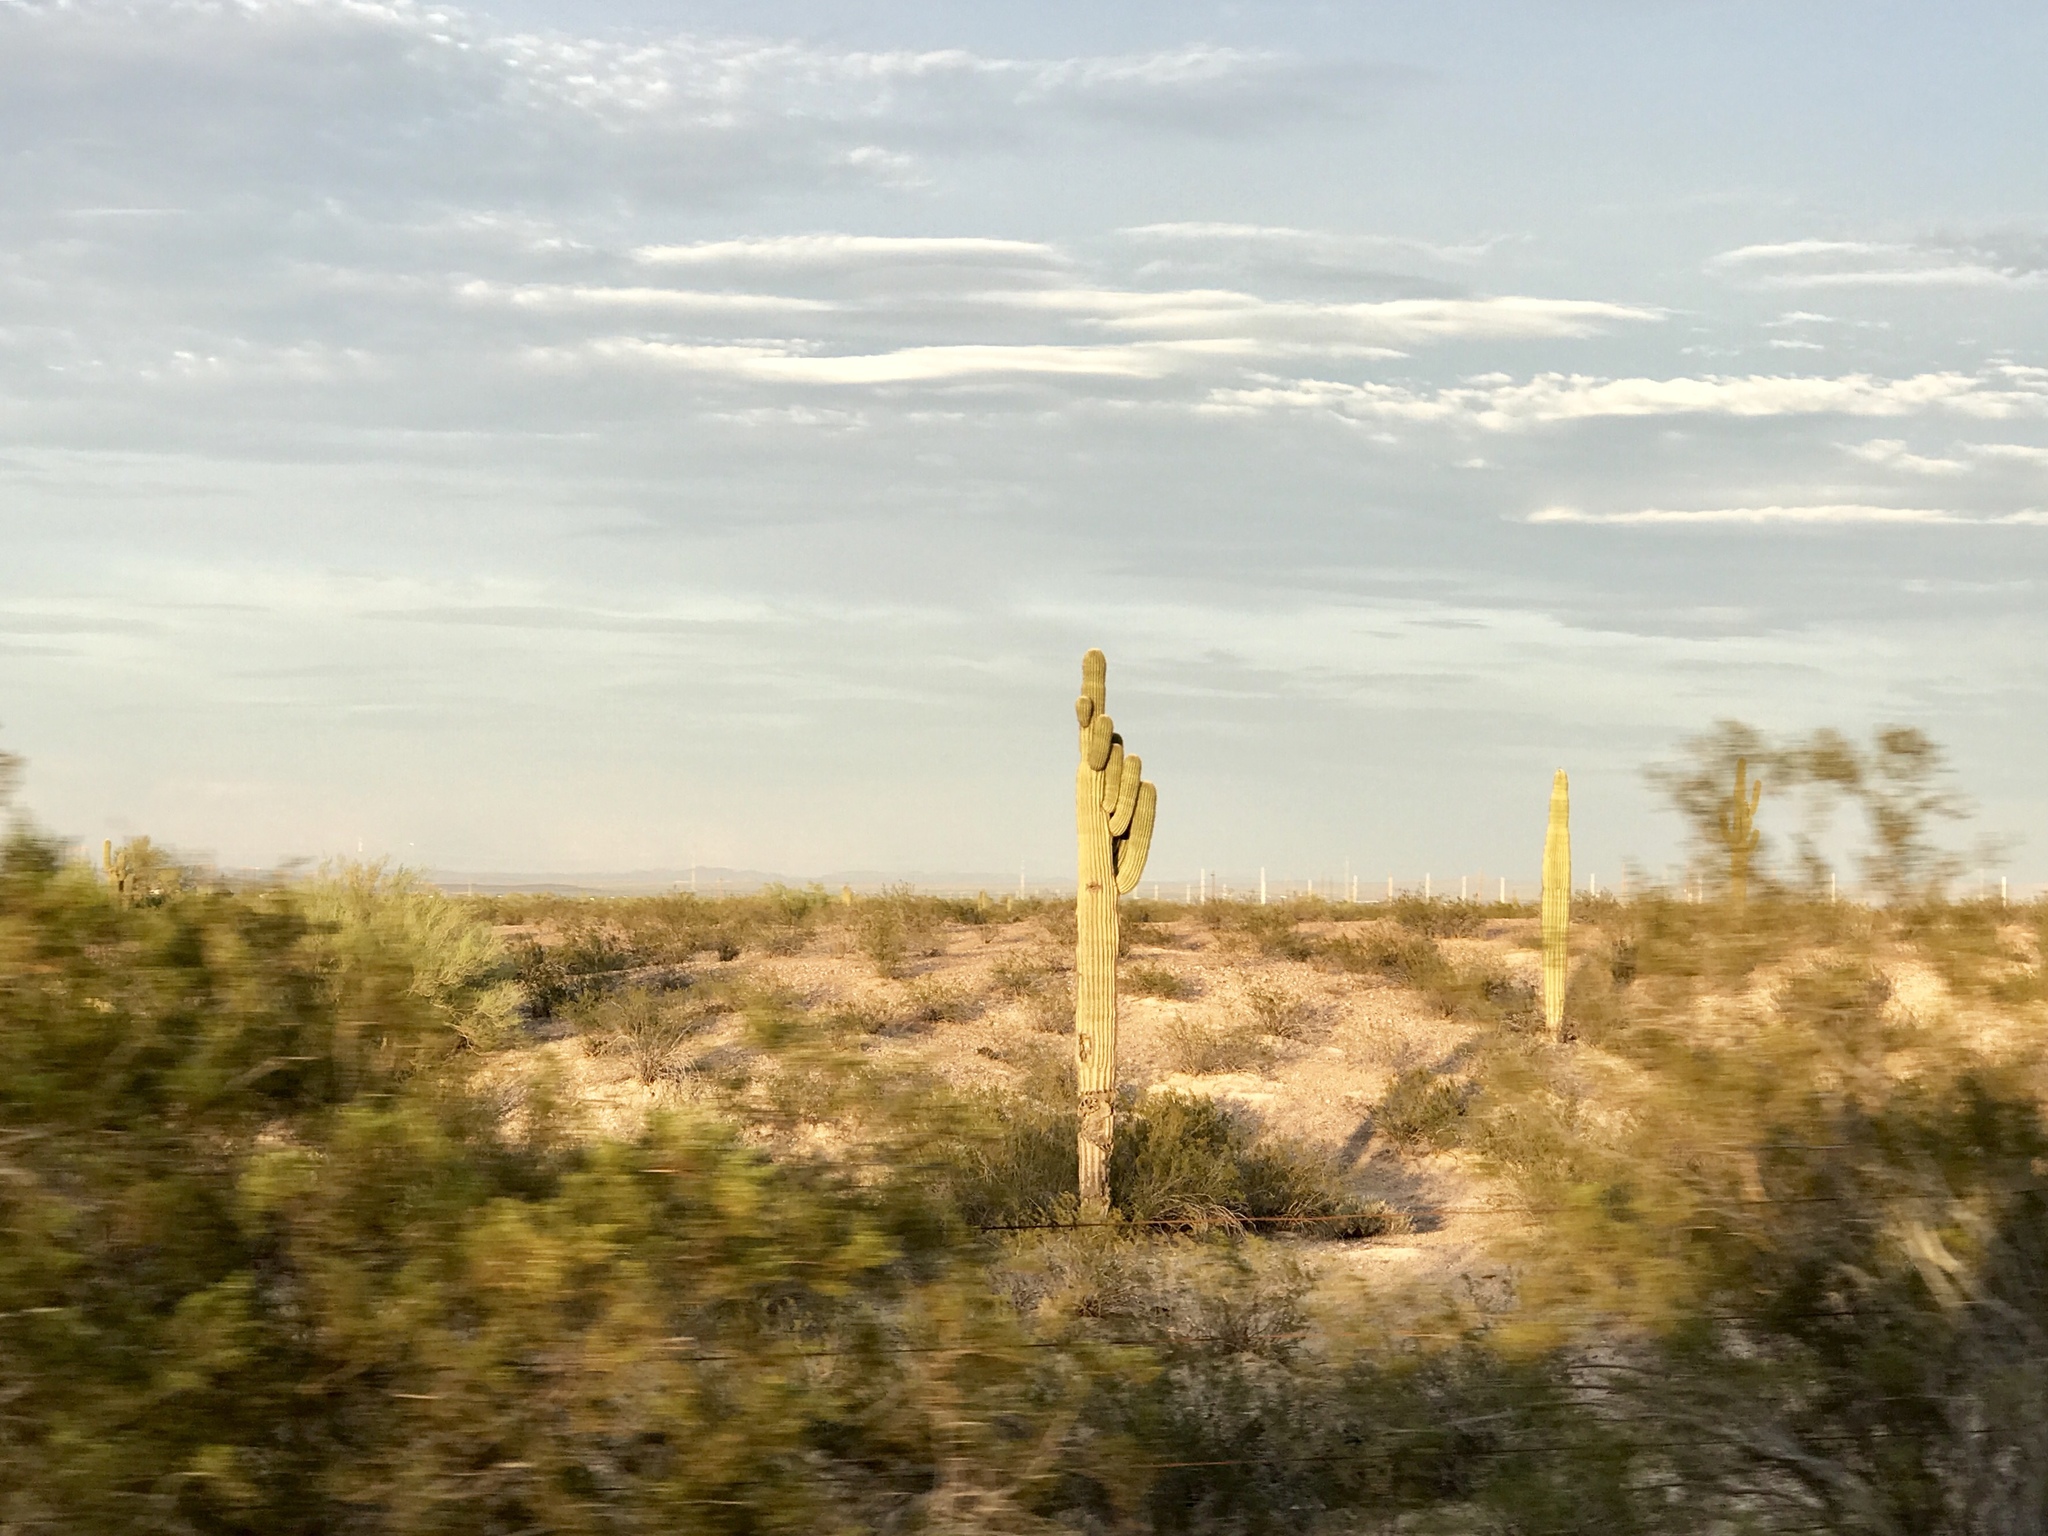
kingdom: Plantae
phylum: Tracheophyta
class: Magnoliopsida
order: Caryophyllales
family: Cactaceae
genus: Carnegiea
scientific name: Carnegiea gigantea
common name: Saguaro
